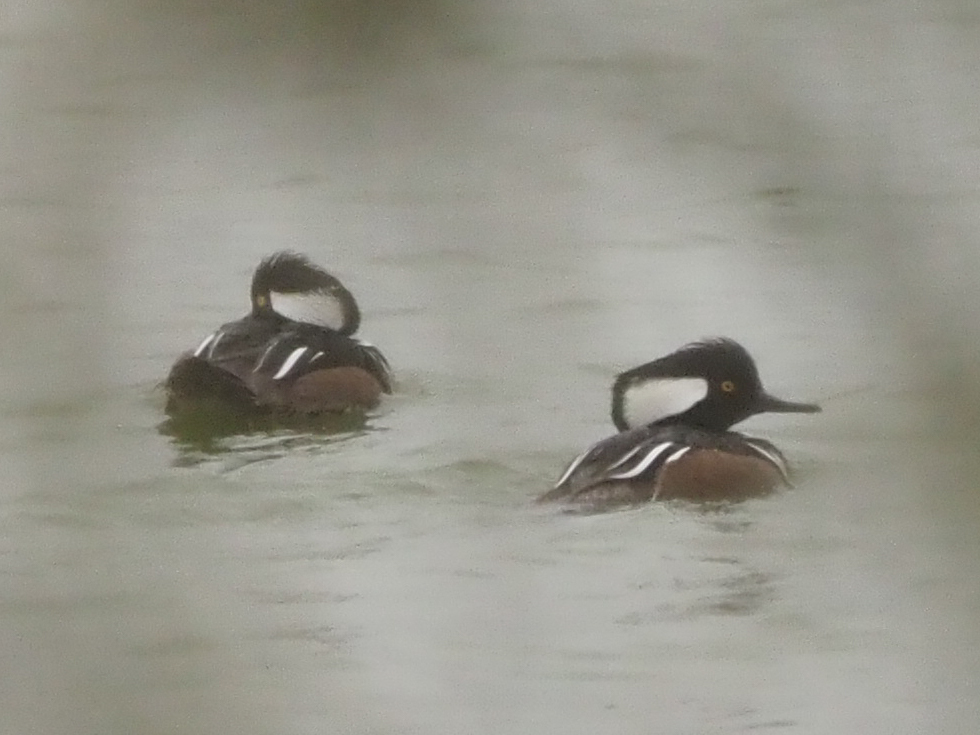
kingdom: Animalia
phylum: Chordata
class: Aves
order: Anseriformes
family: Anatidae
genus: Lophodytes
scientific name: Lophodytes cucullatus
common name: Hooded merganser
